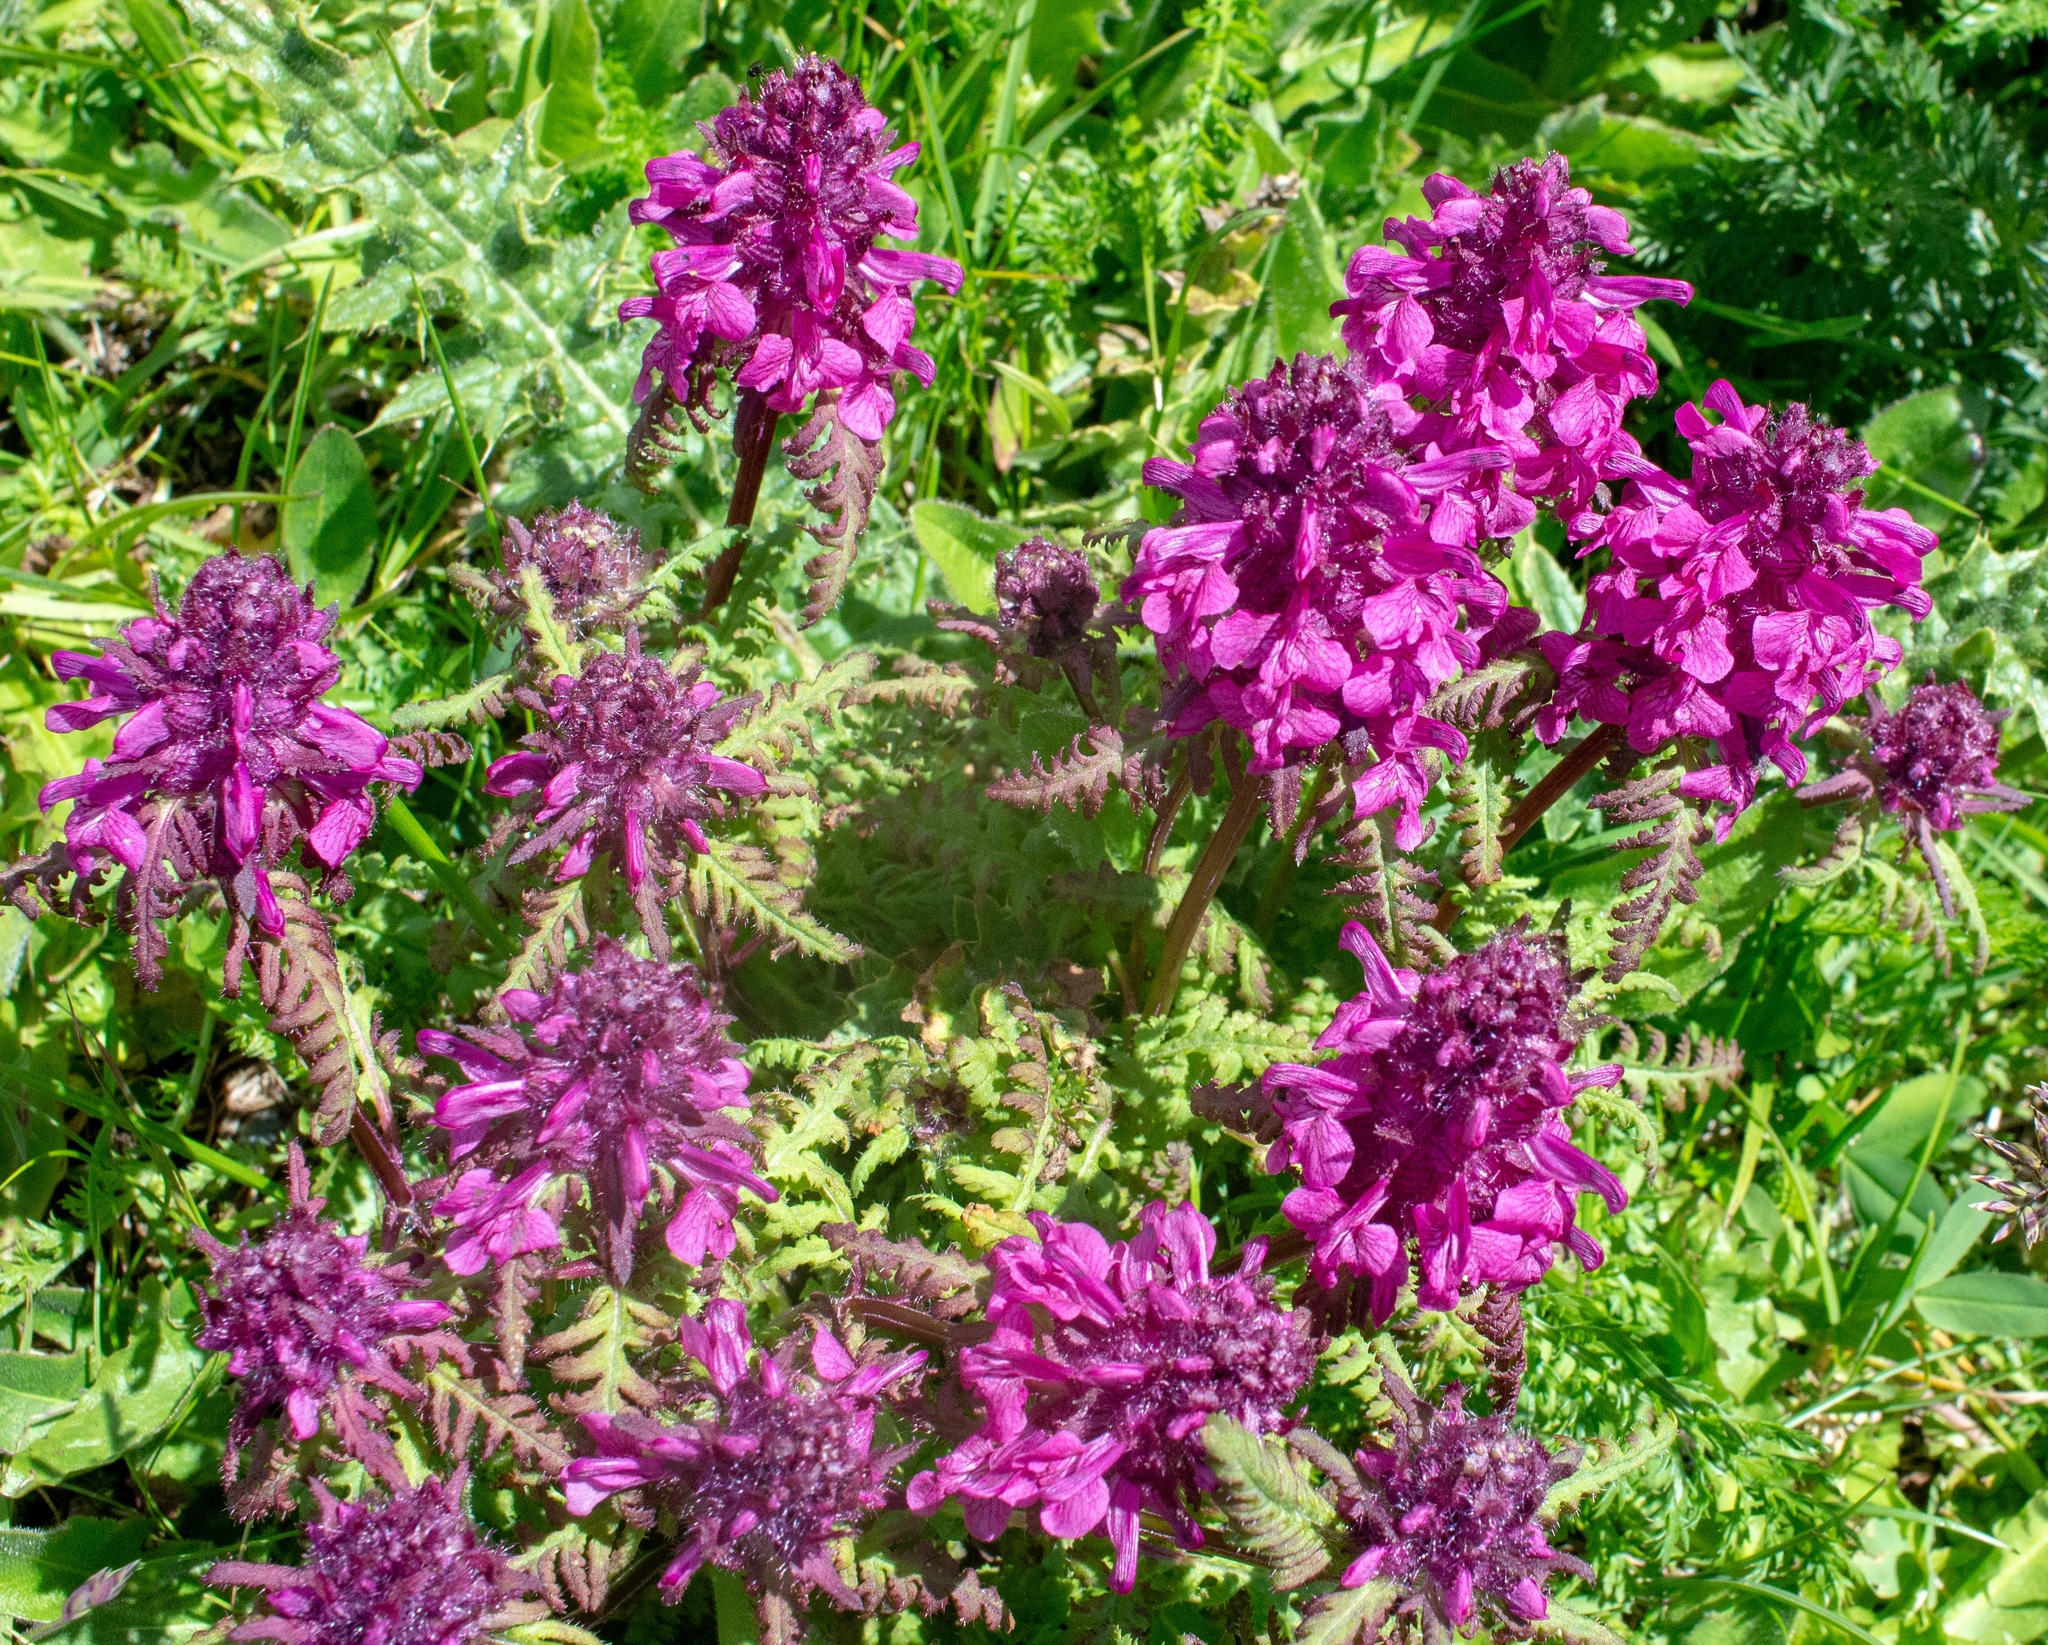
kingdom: Plantae
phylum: Tracheophyta
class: Magnoliopsida
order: Lamiales
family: Orobanchaceae
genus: Pedicularis
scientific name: Pedicularis verticillata
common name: Whorled lousewort
